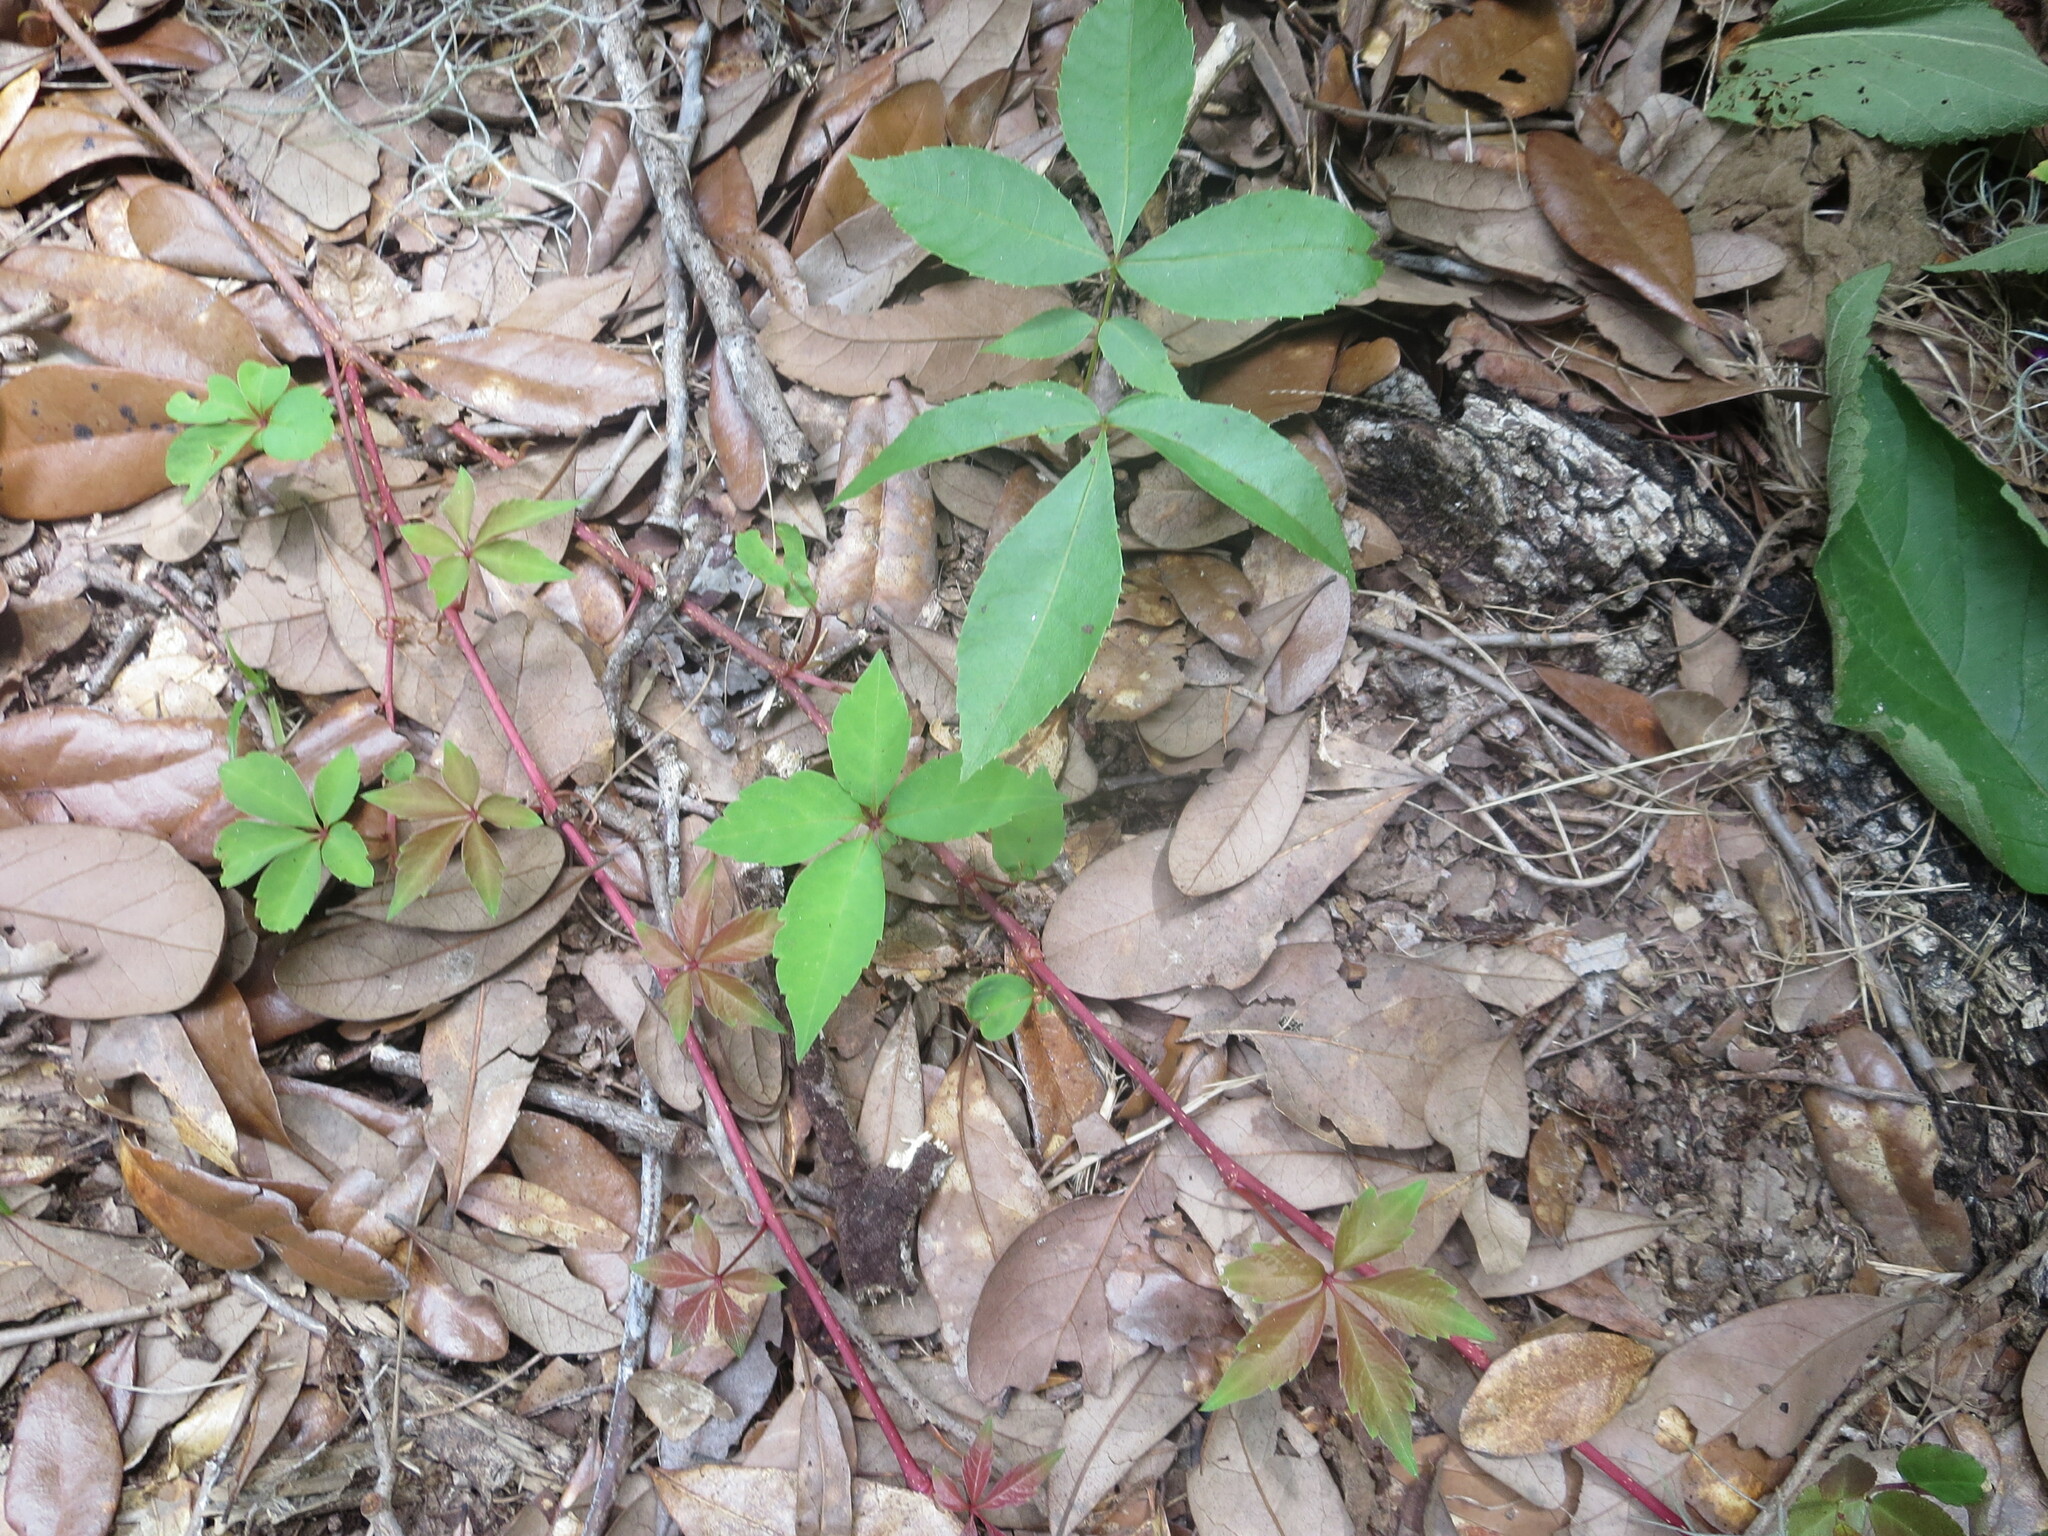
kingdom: Plantae
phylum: Tracheophyta
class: Magnoliopsida
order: Vitales
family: Vitaceae
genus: Parthenocissus
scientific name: Parthenocissus quinquefolia
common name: Virginia-creeper
